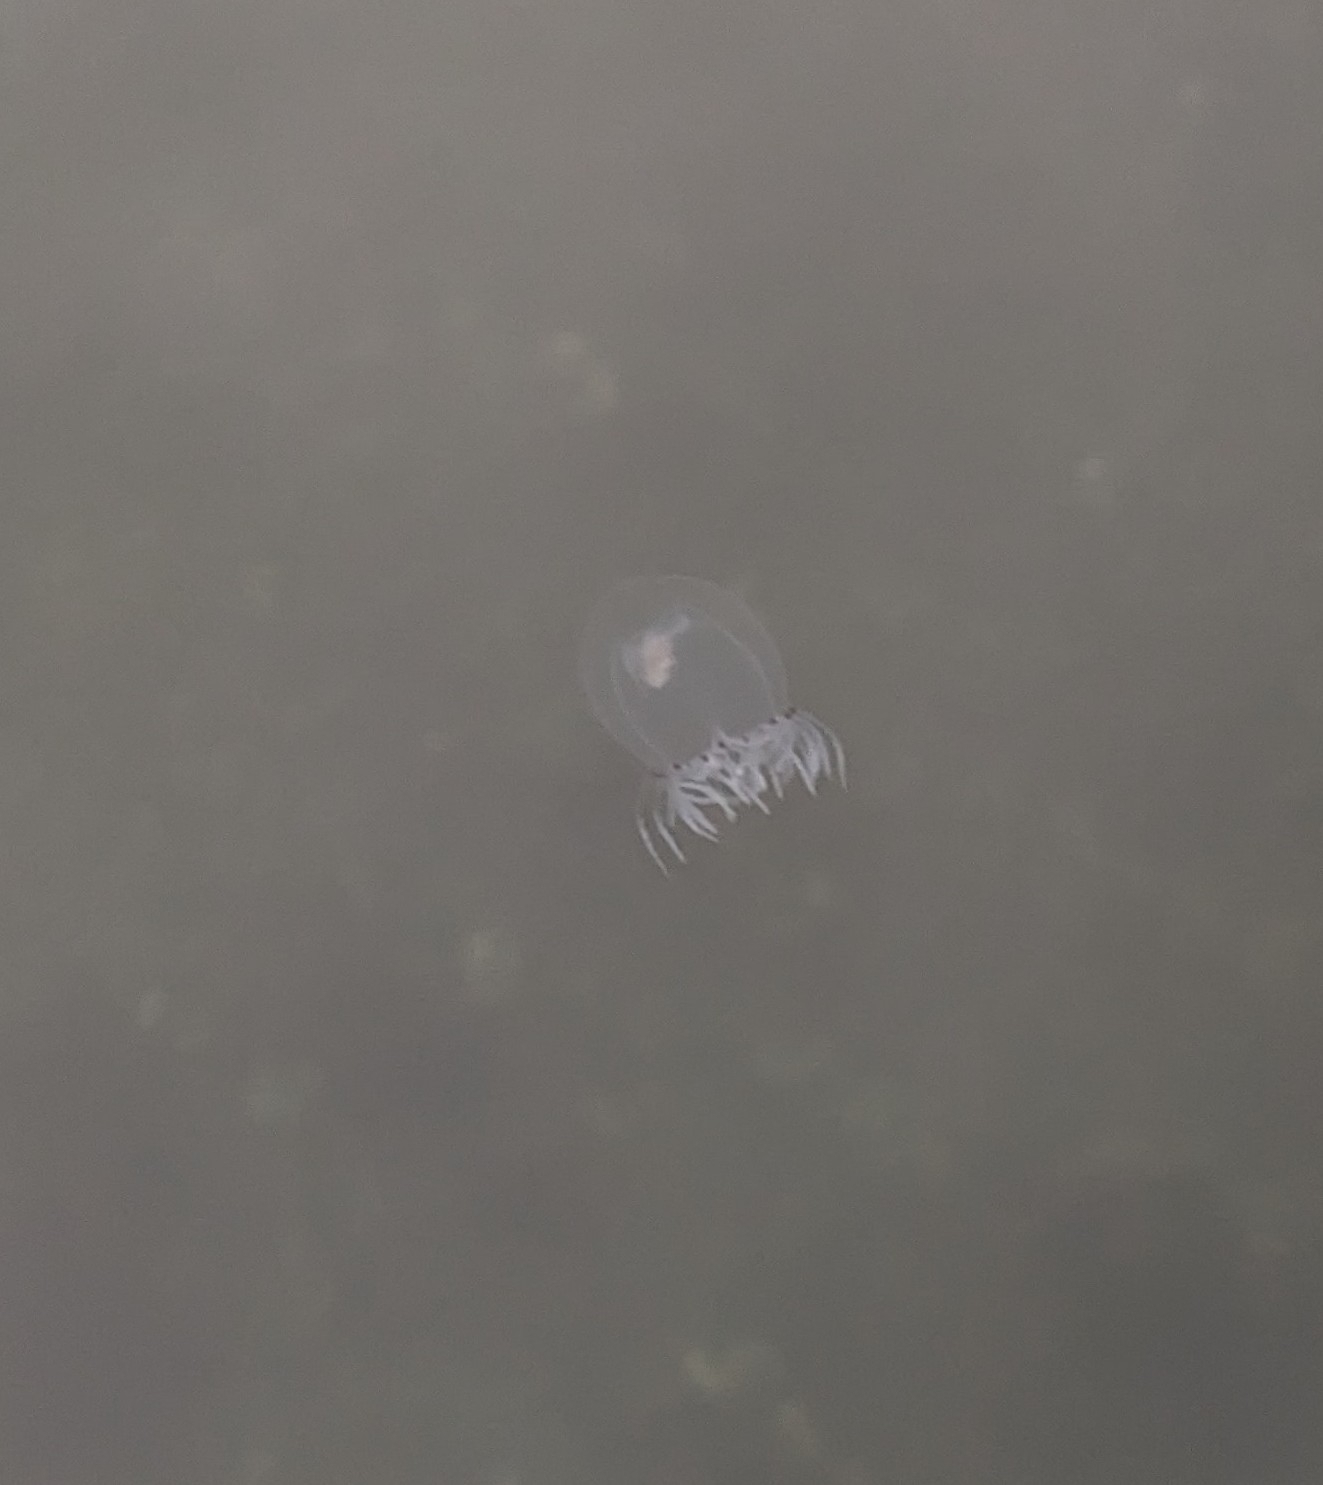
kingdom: Animalia
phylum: Cnidaria
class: Hydrozoa
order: Anthoathecata
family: Corynidae
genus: Polyorchis
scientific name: Polyorchis penicillatus
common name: Penicillate jellyfish
